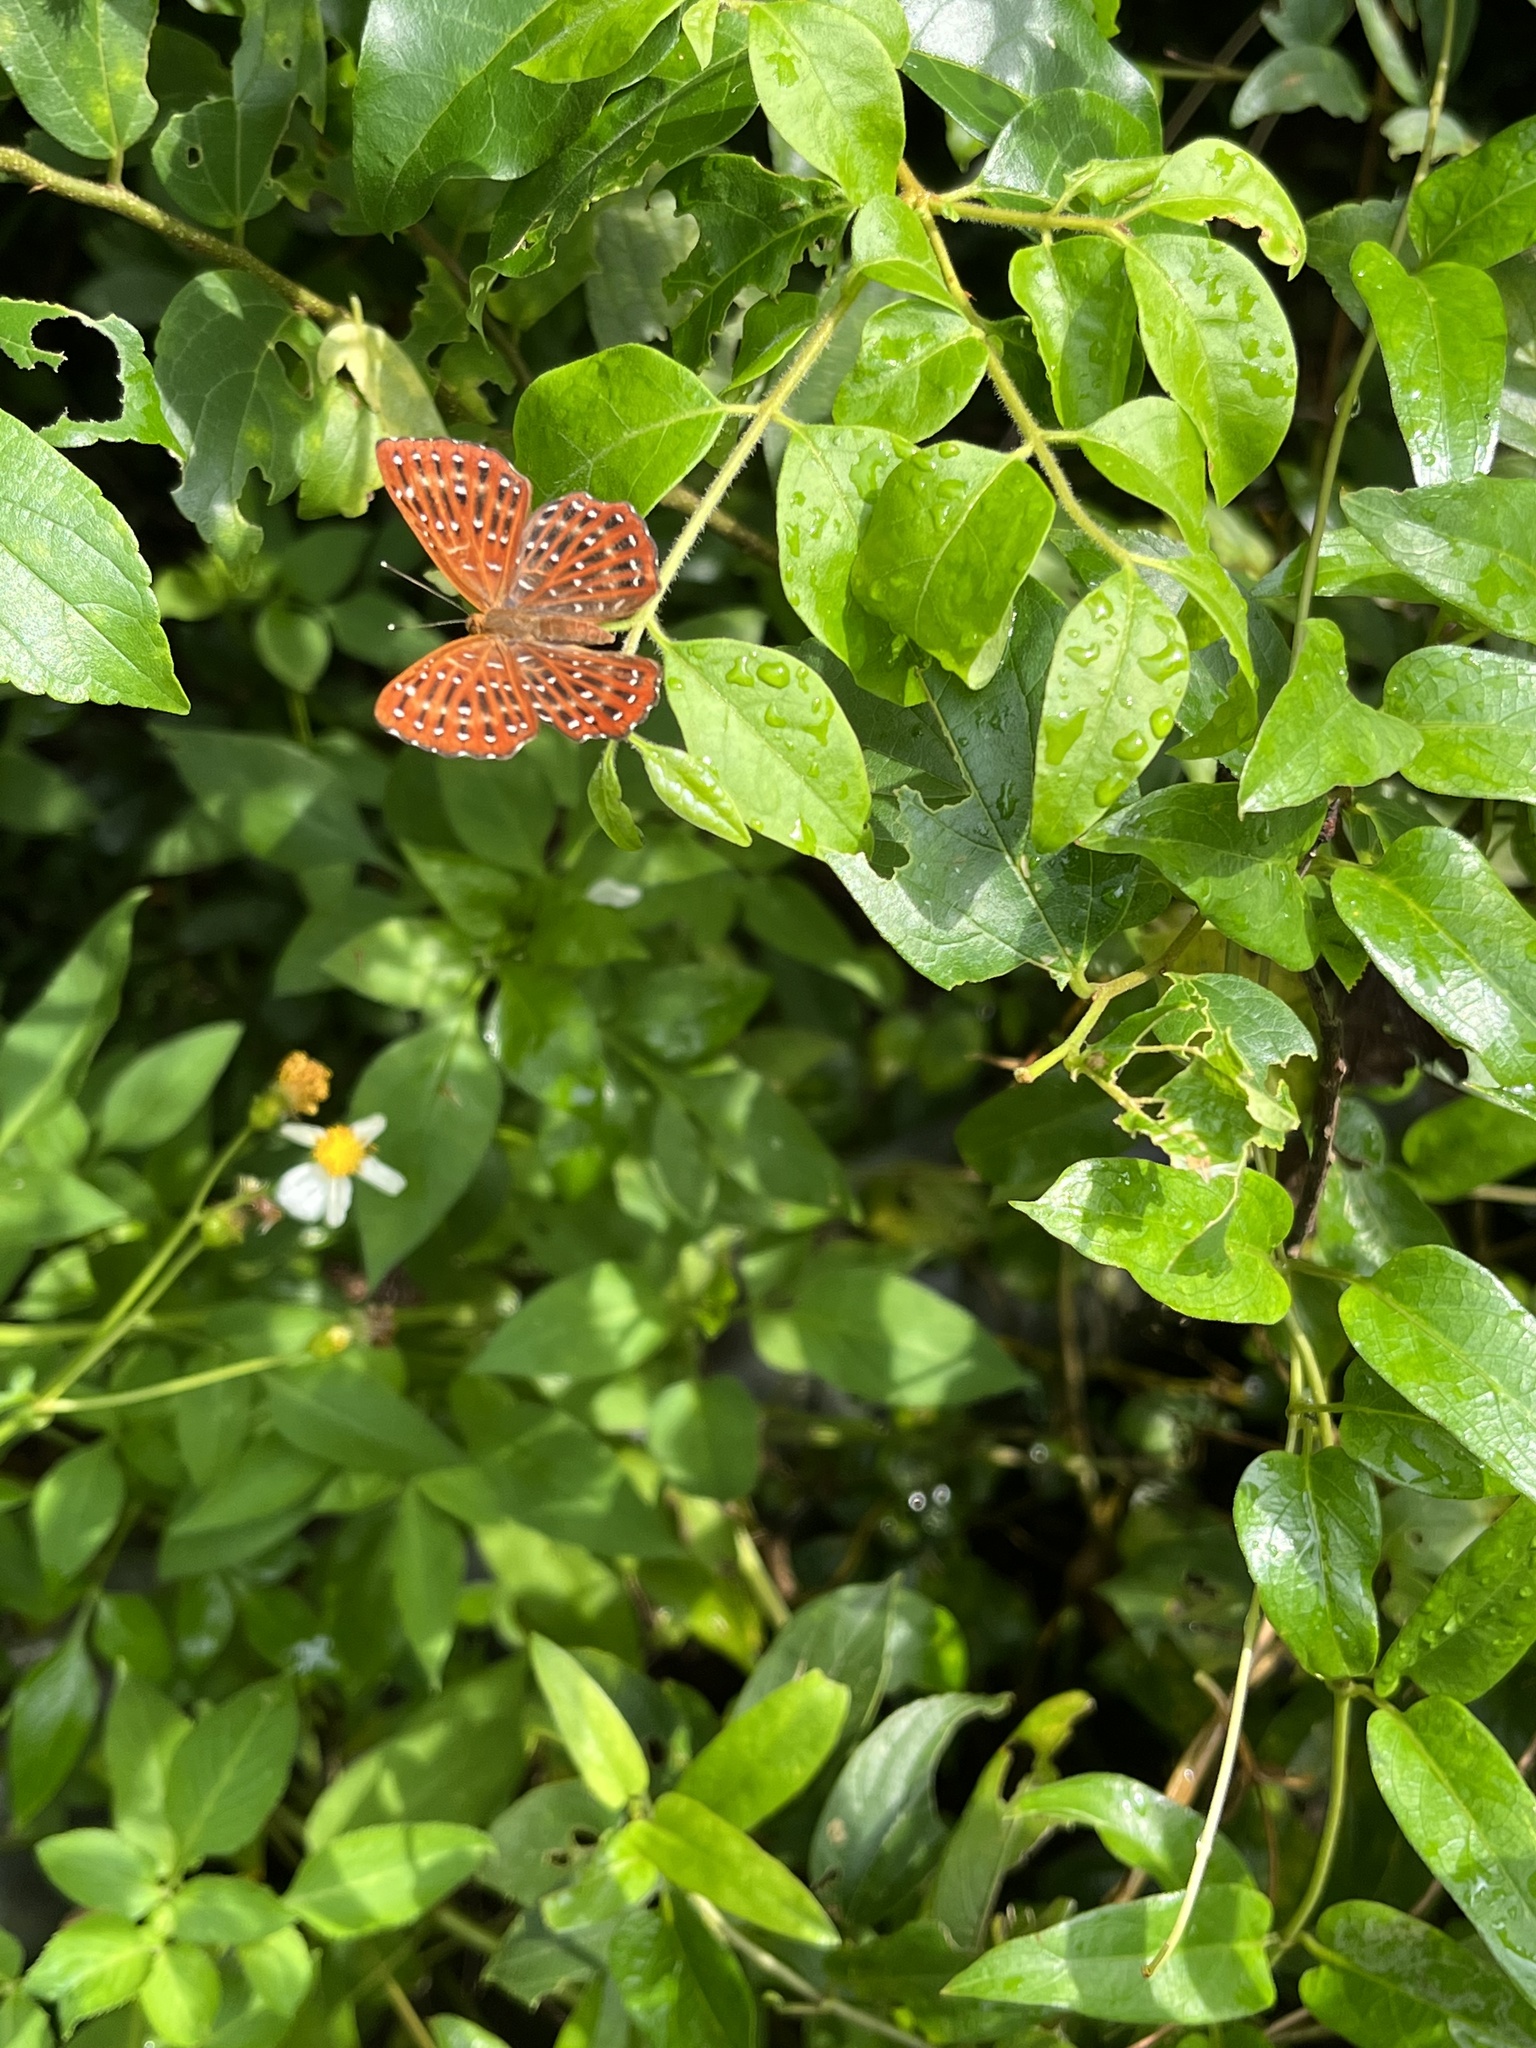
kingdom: Animalia
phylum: Arthropoda
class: Insecta
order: Lepidoptera
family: Riodinidae
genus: Zemeros
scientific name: Zemeros flegyas
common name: Punchinello
